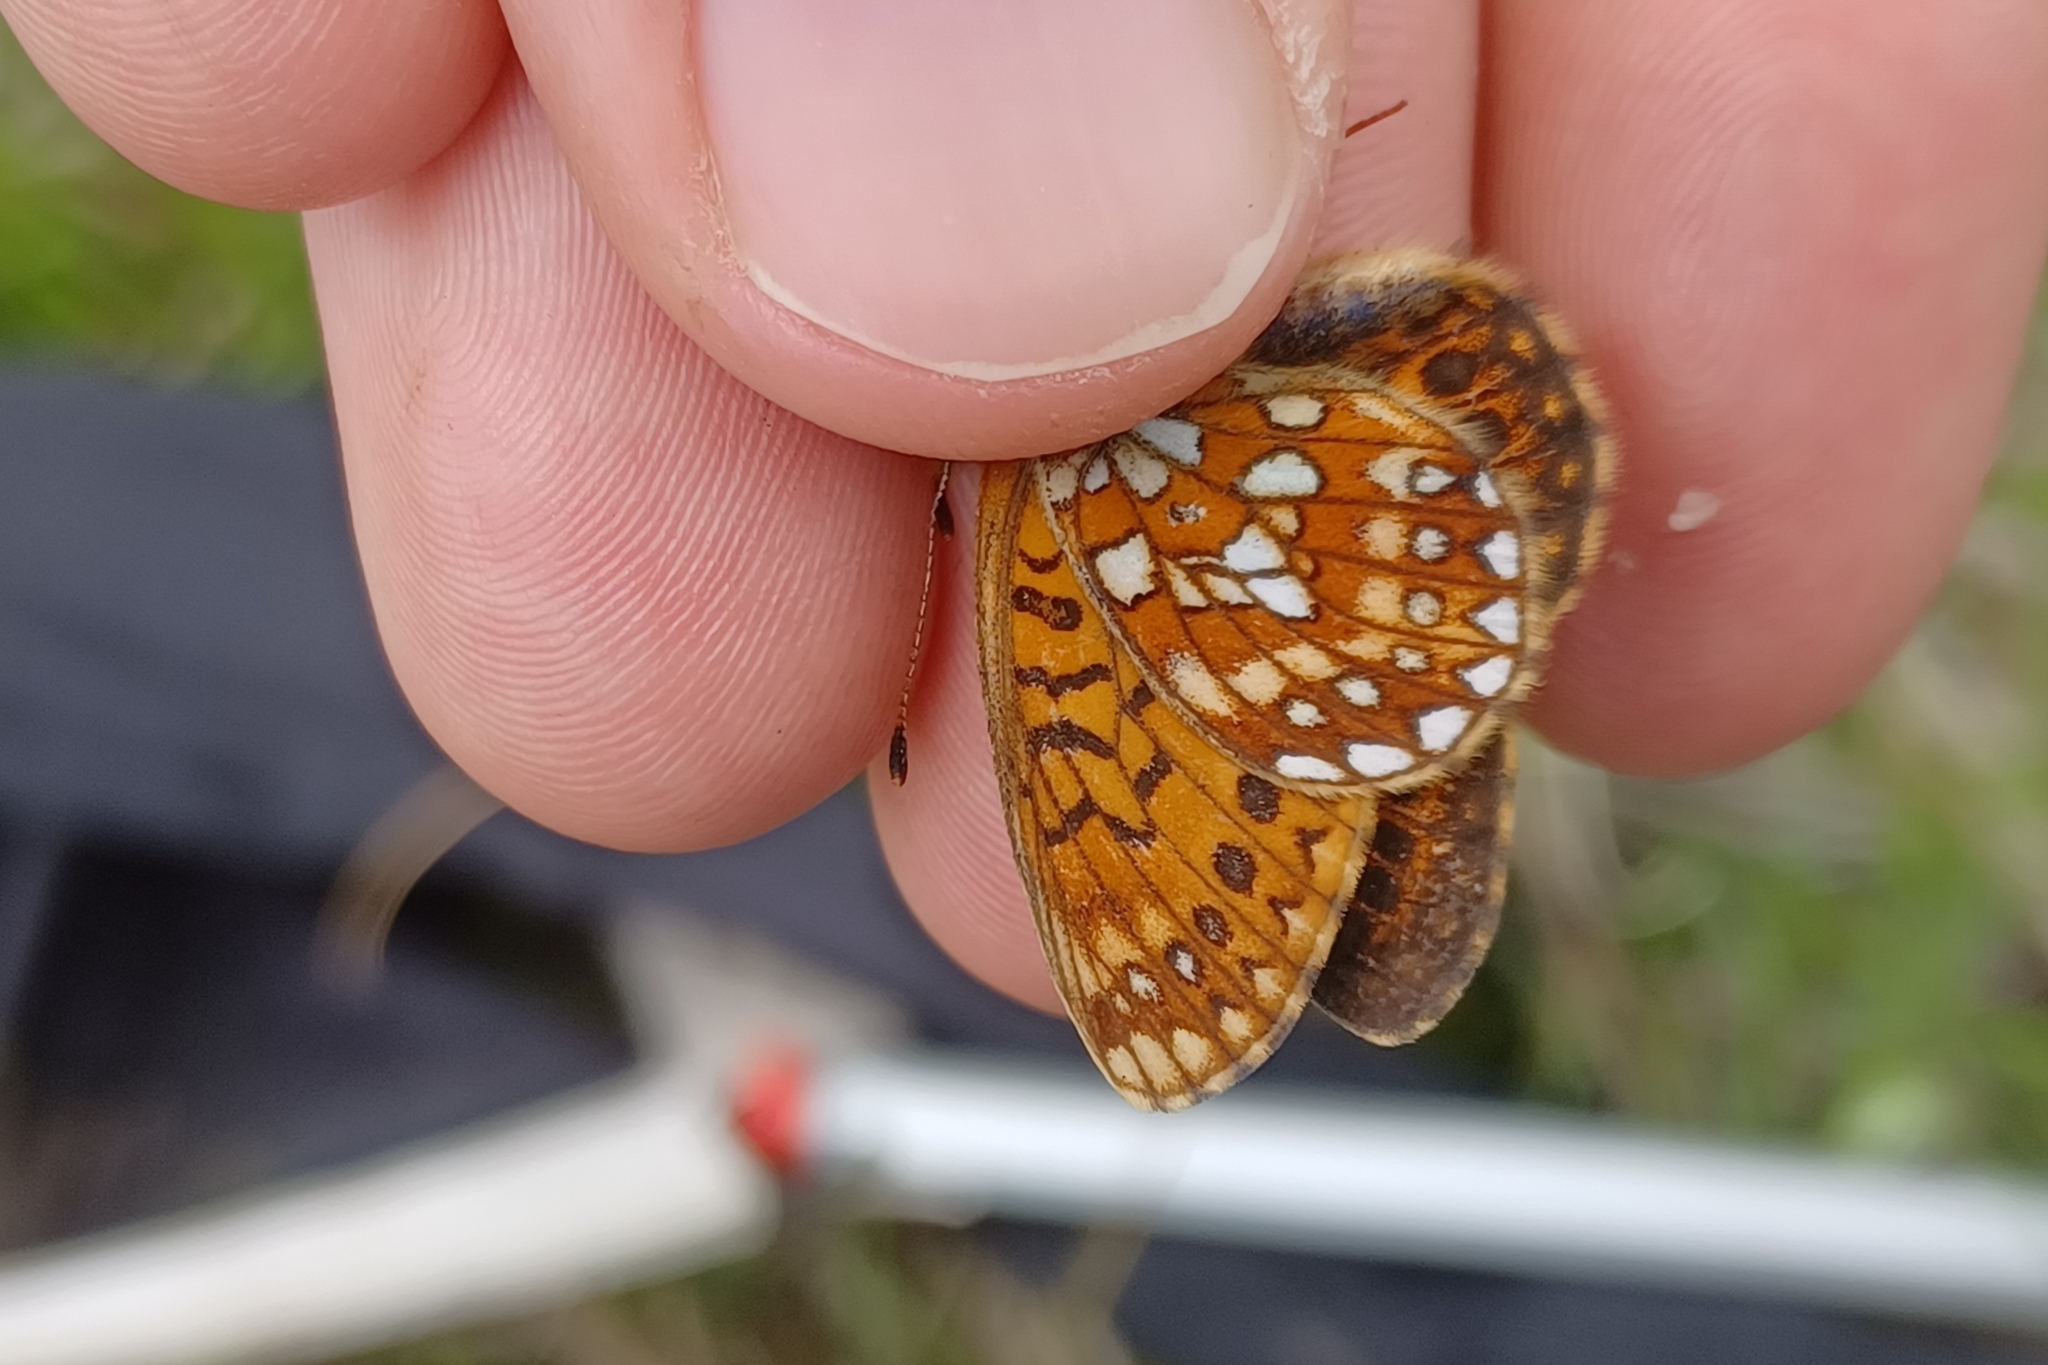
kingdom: Animalia
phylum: Arthropoda
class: Insecta
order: Lepidoptera
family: Nymphalidae
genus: Boloria
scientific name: Boloria eunomia
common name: Bog fritillary
